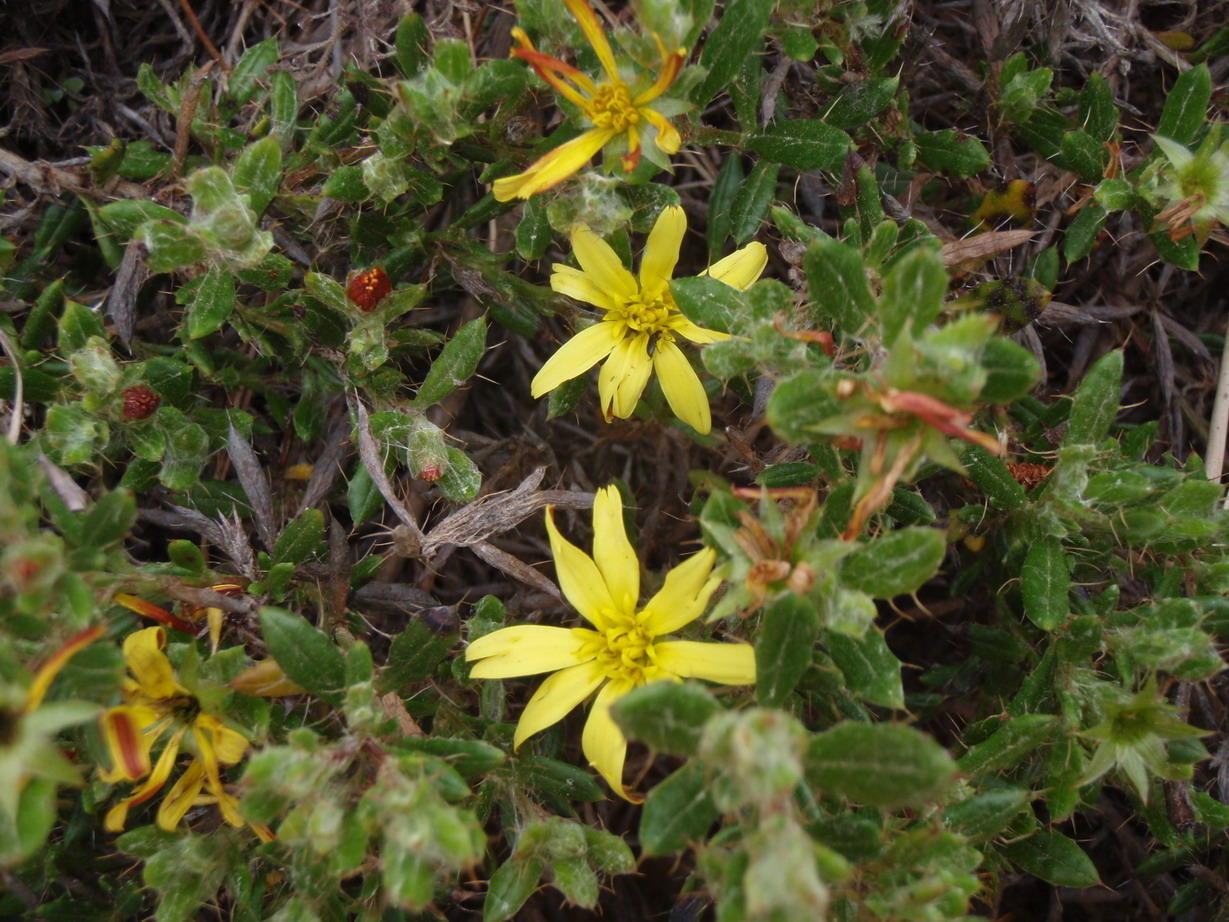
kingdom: Plantae
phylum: Tracheophyta
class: Magnoliopsida
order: Asterales
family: Asteraceae
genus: Cullumia
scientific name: Cullumia aculeata
